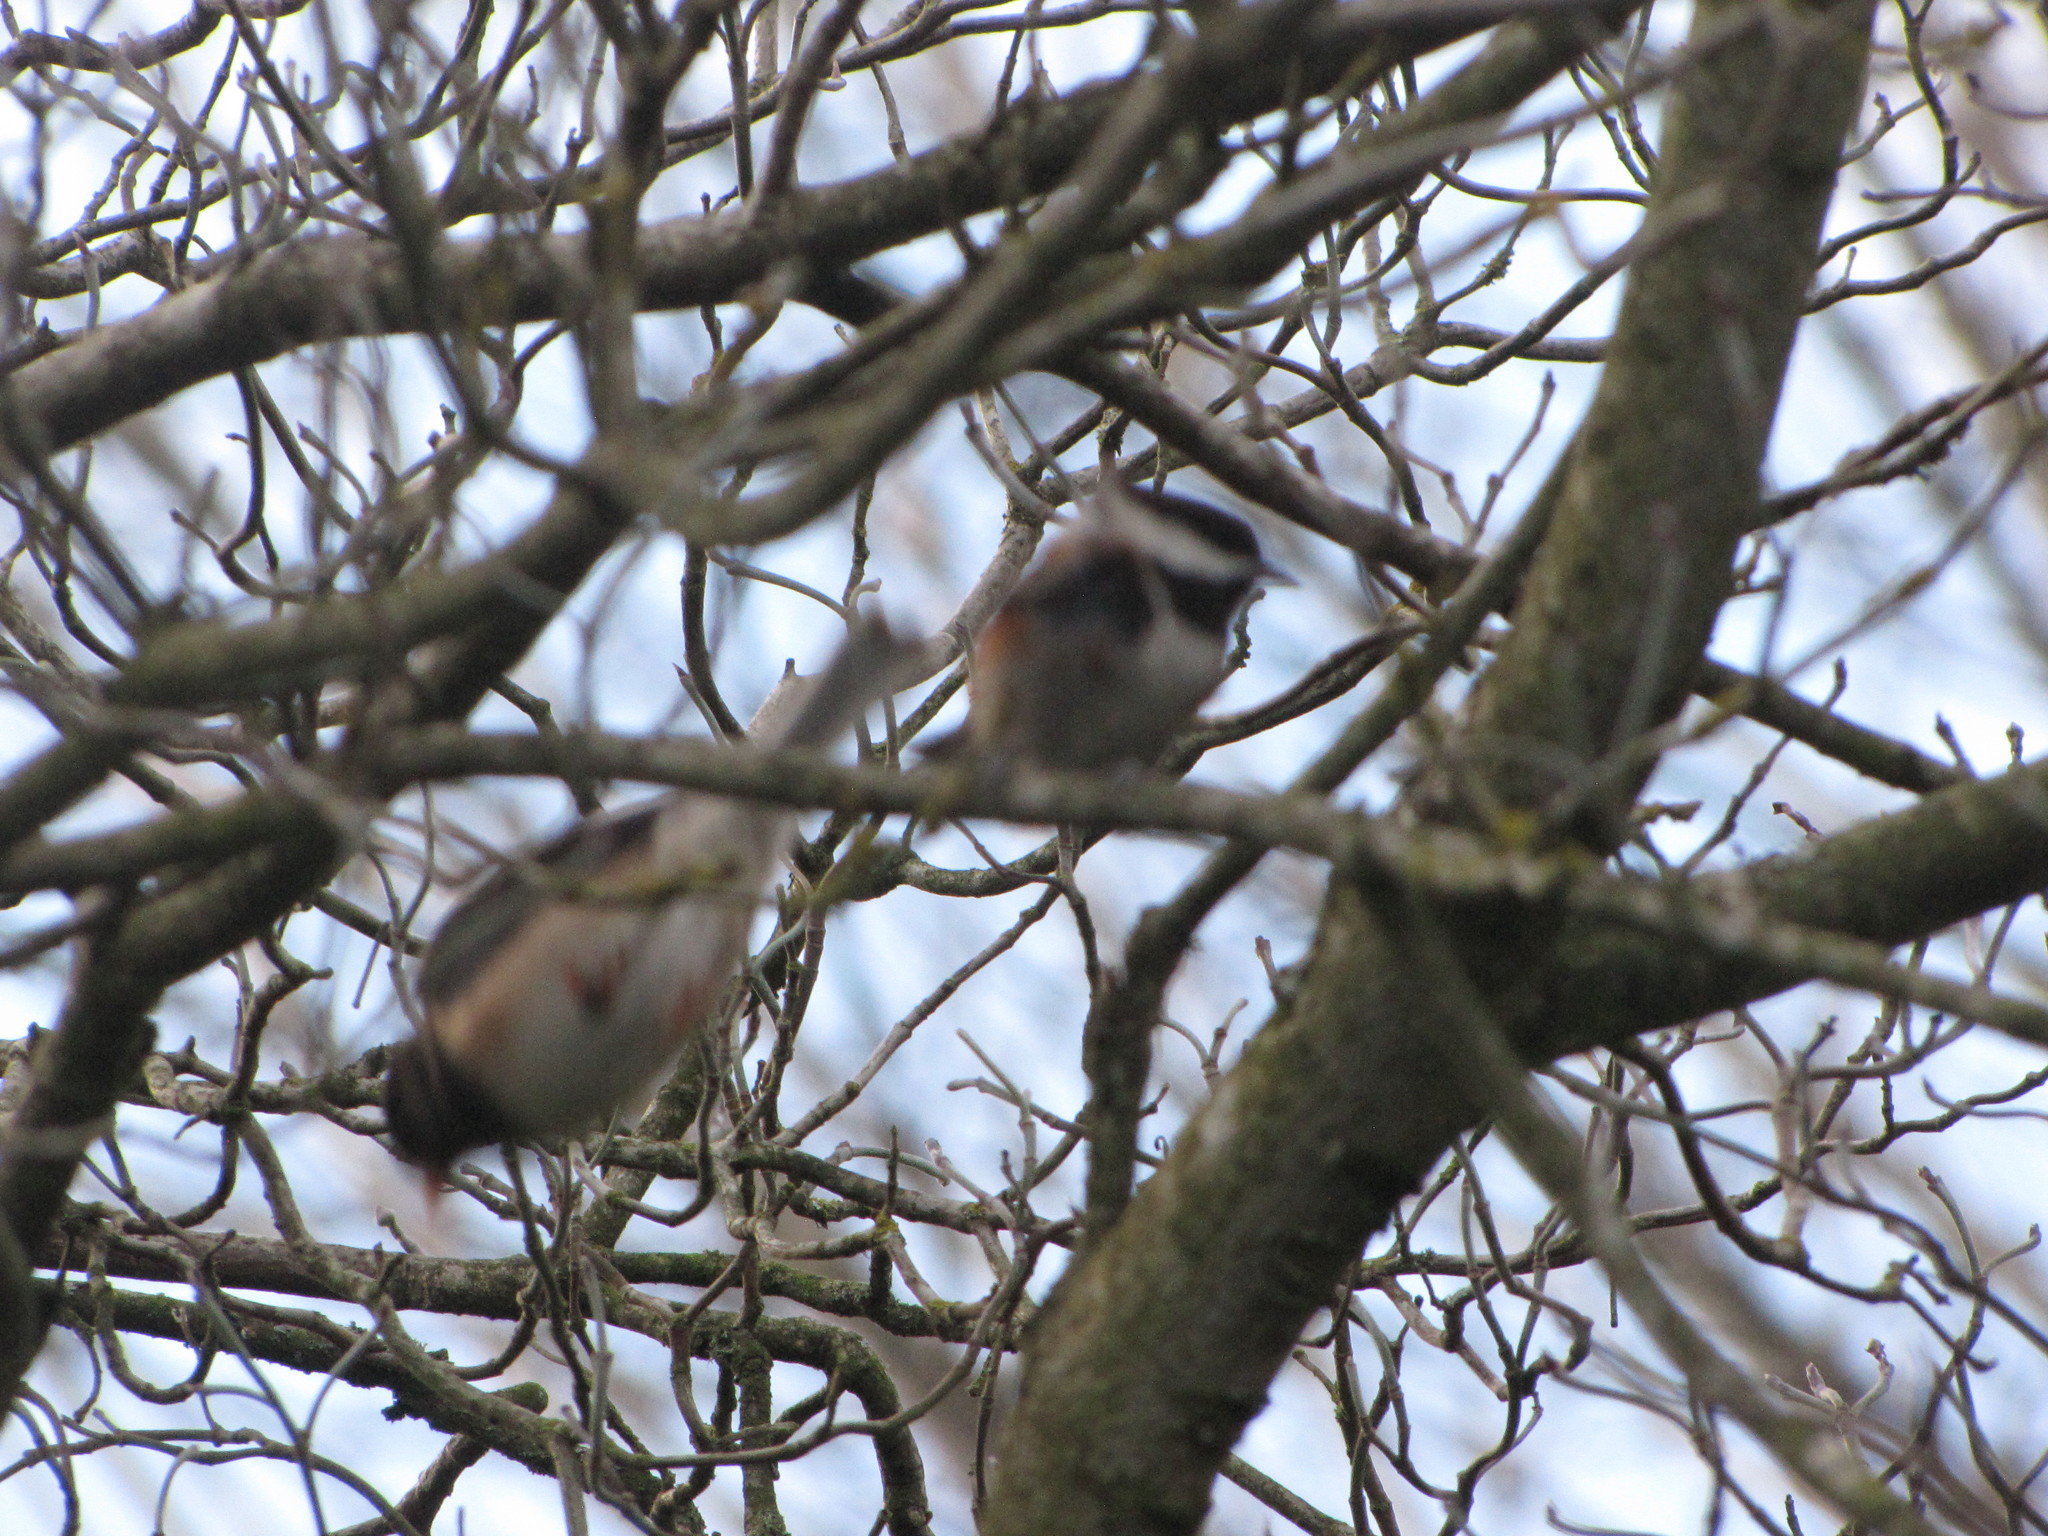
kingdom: Animalia
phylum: Chordata
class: Aves
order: Passeriformes
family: Paridae
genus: Poecile
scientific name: Poecile rufescens
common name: Chestnut-backed chickadee
